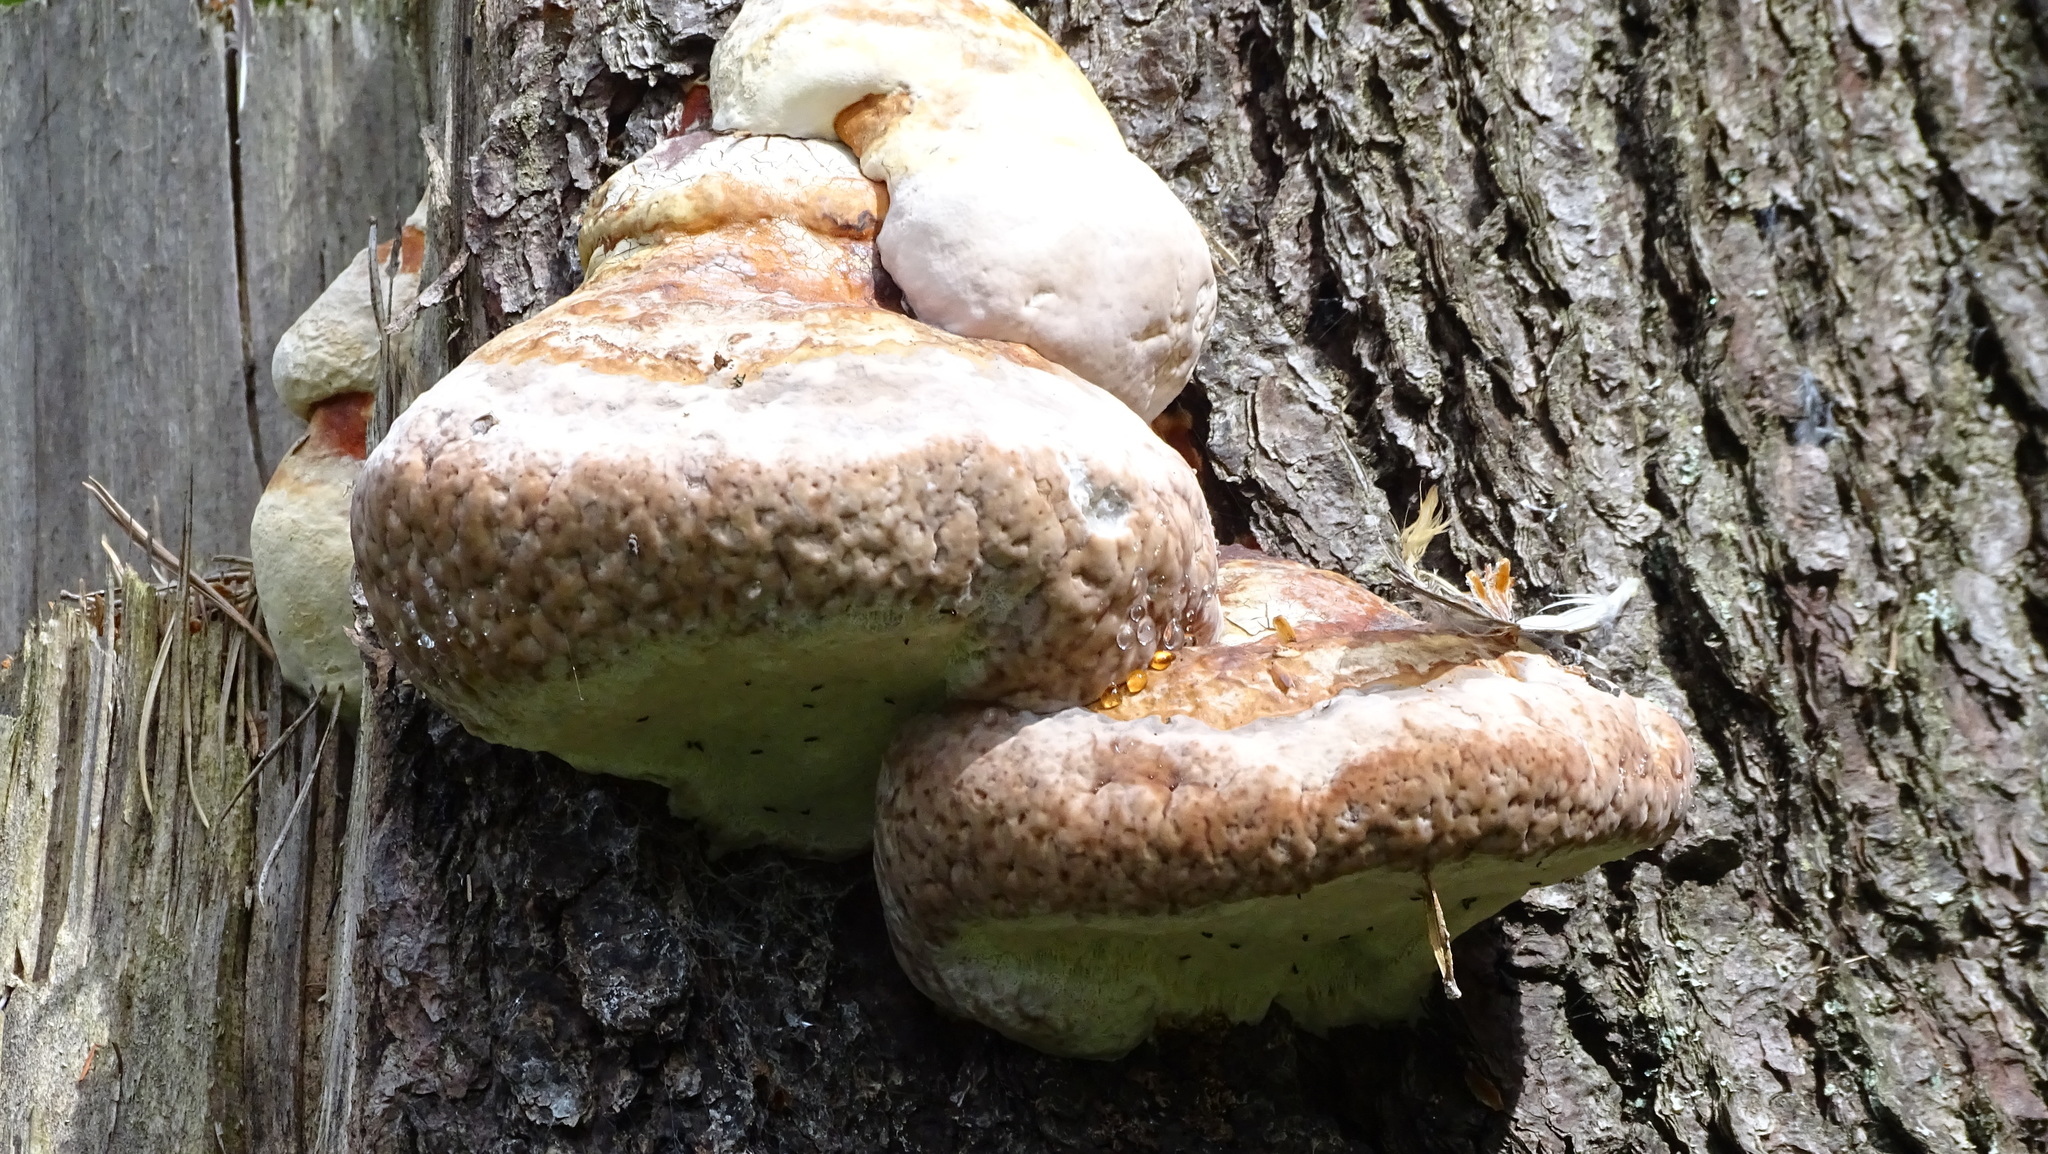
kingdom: Fungi
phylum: Basidiomycota
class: Agaricomycetes
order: Polyporales
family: Fomitopsidaceae
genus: Fomitopsis
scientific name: Fomitopsis pinicola
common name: Red-belted bracket
